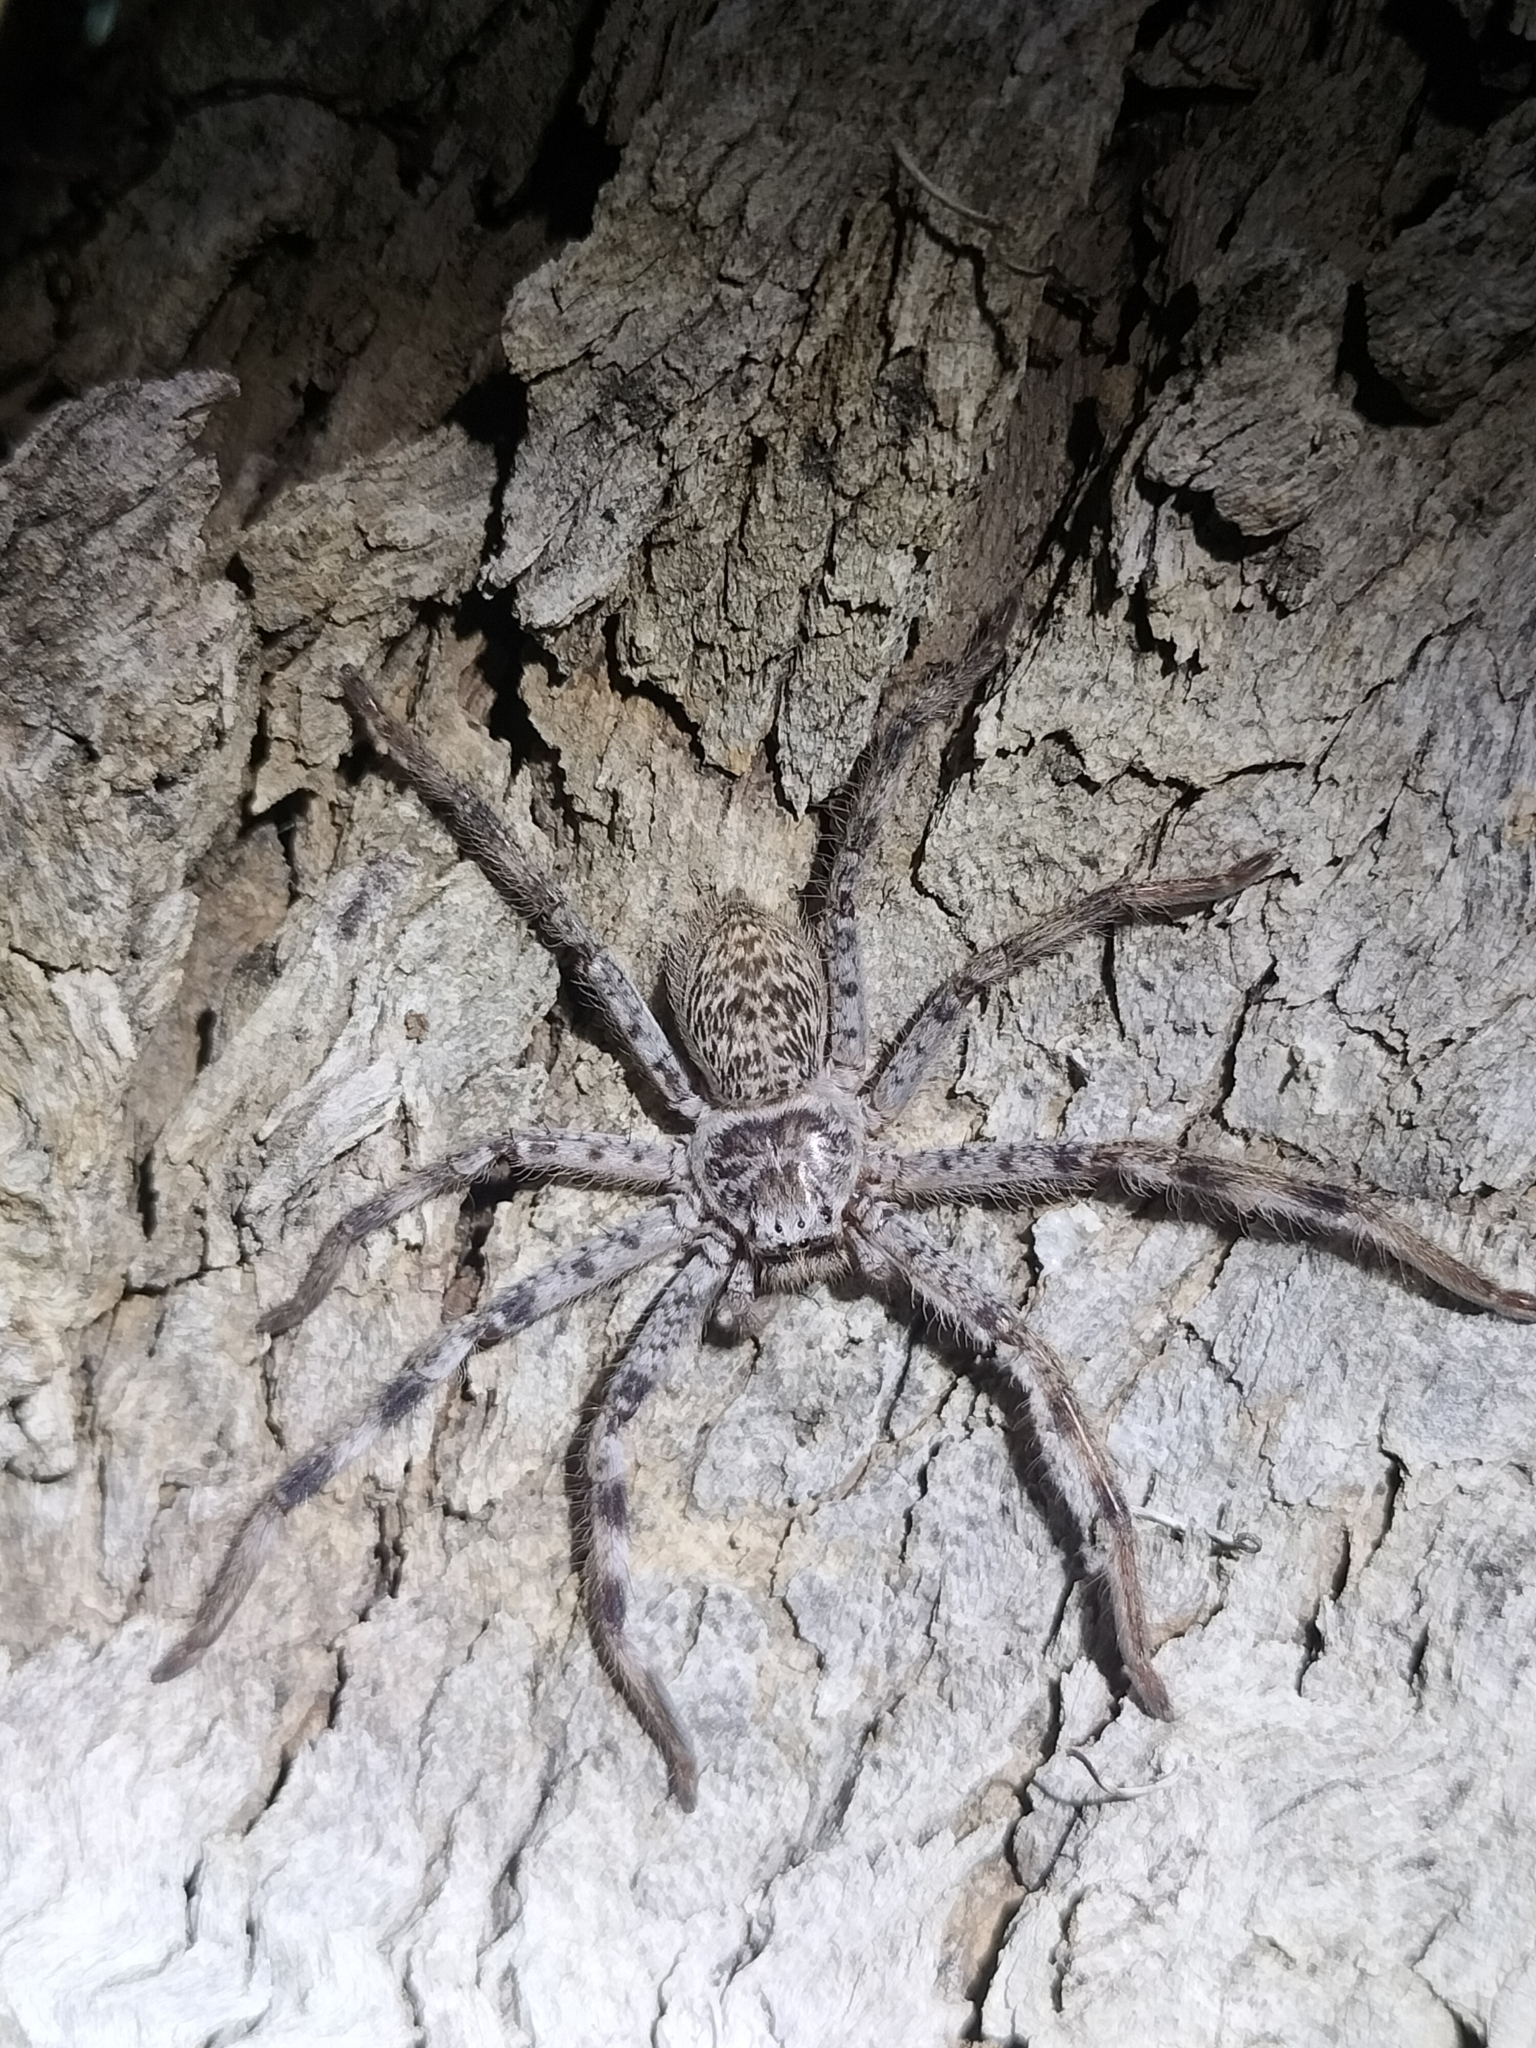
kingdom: Animalia
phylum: Arthropoda
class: Arachnida
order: Araneae
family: Sparassidae
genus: Holconia
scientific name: Holconia hirsuta
